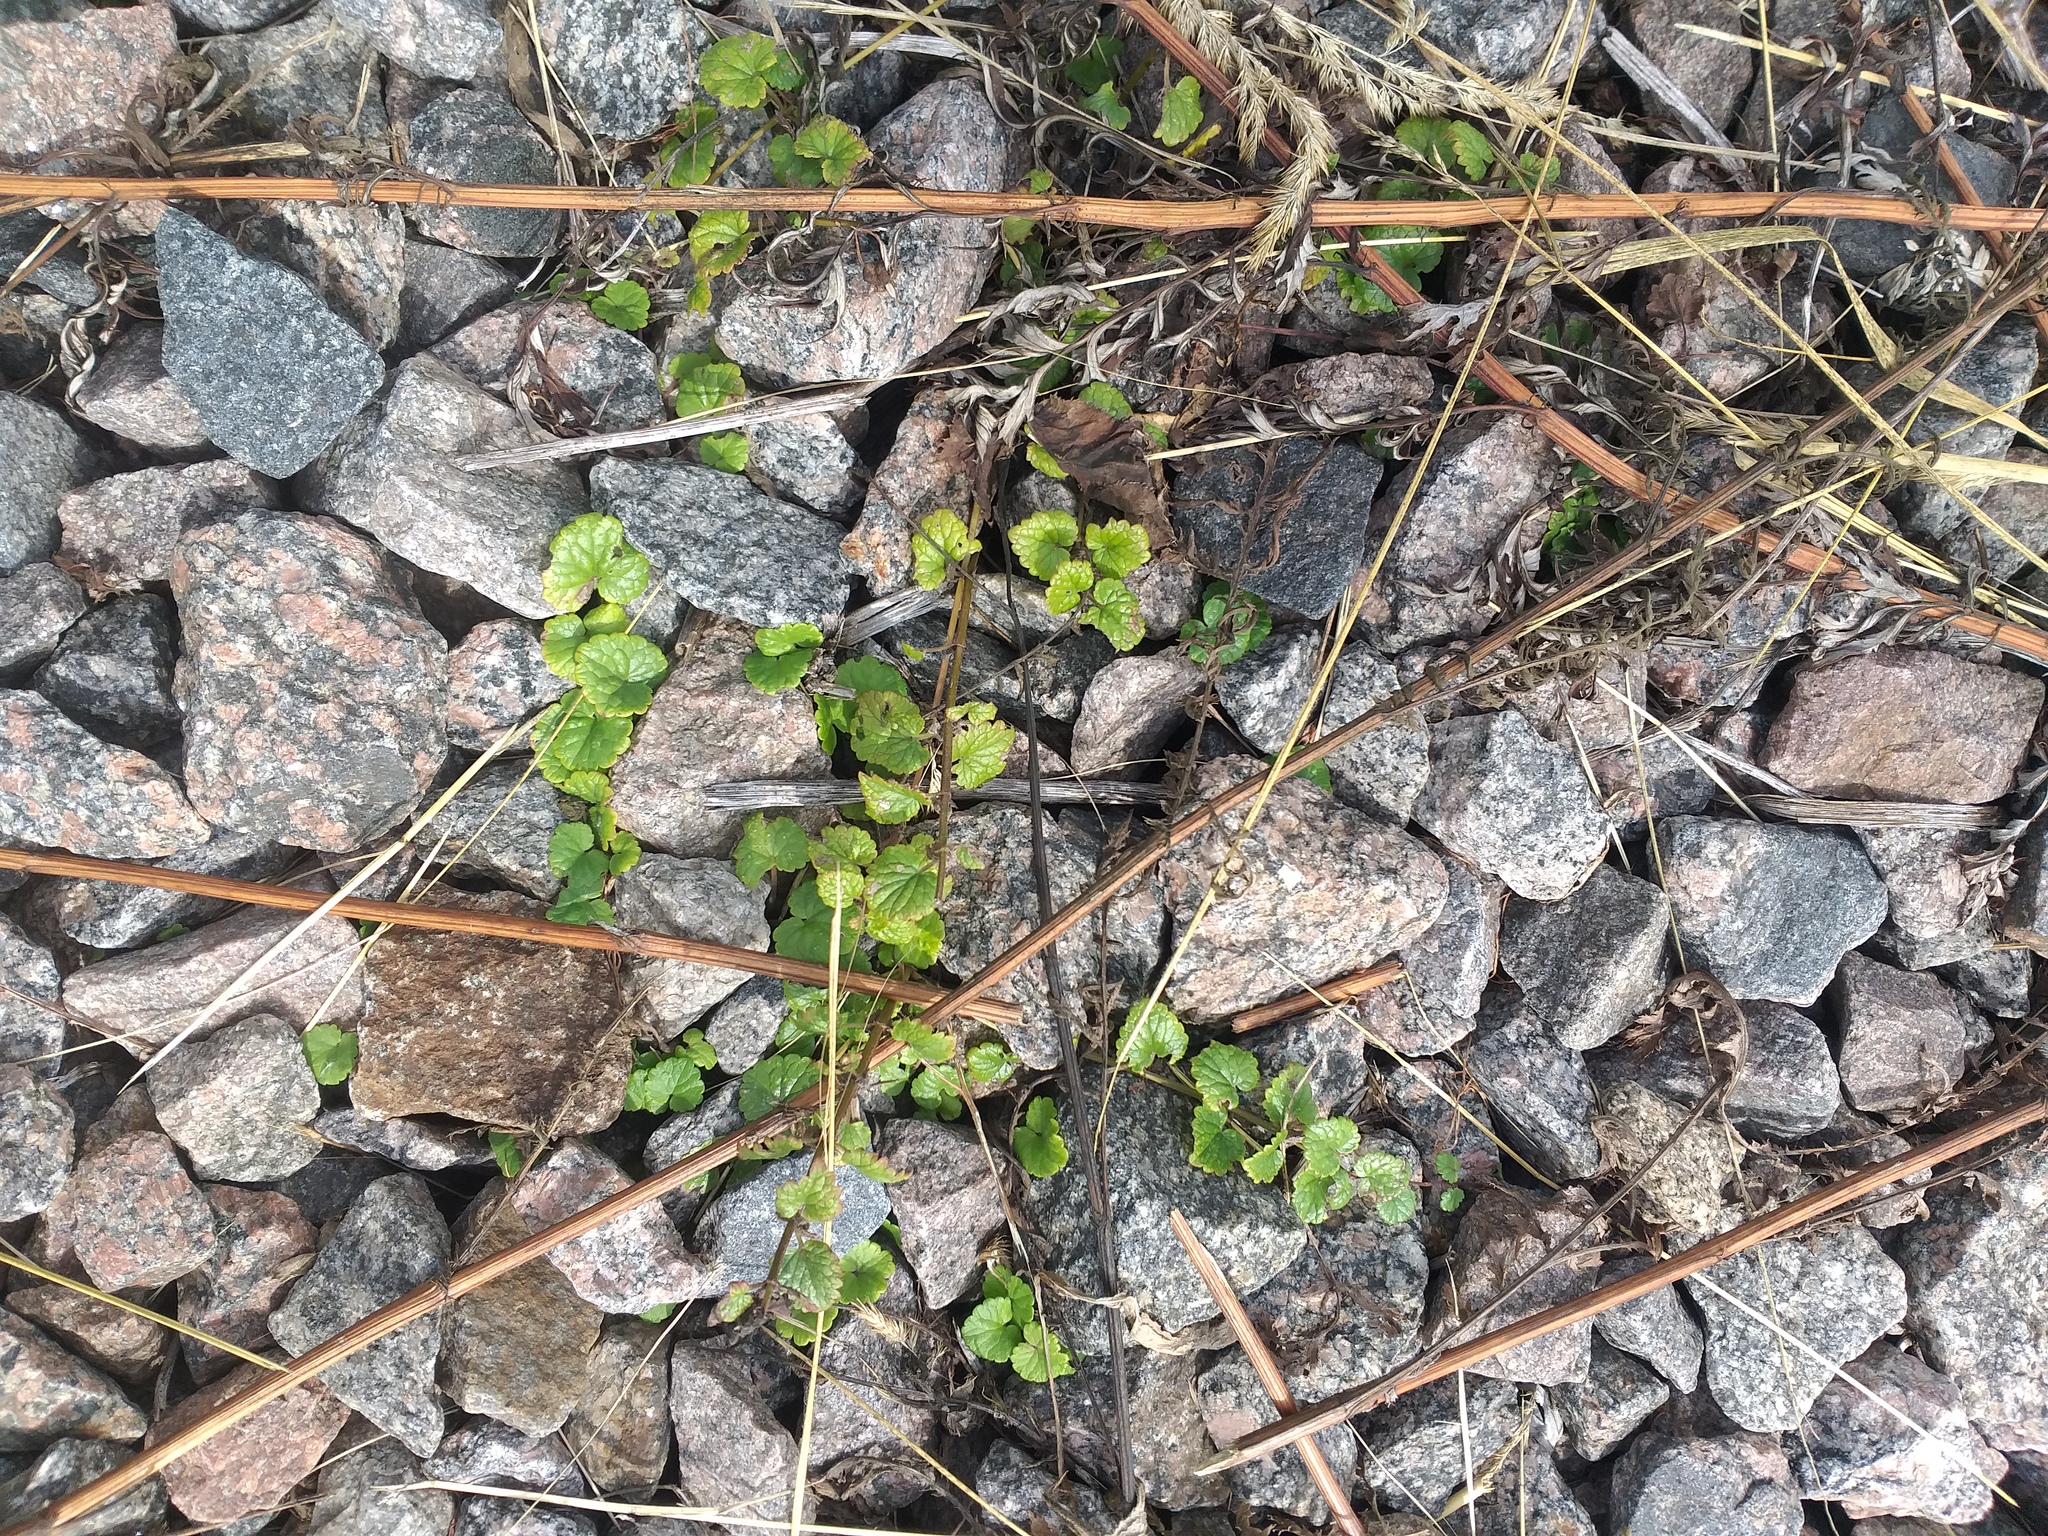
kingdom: Plantae
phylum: Tracheophyta
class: Magnoliopsida
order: Lamiales
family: Lamiaceae
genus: Glechoma
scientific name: Glechoma hederacea
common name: Ground ivy
